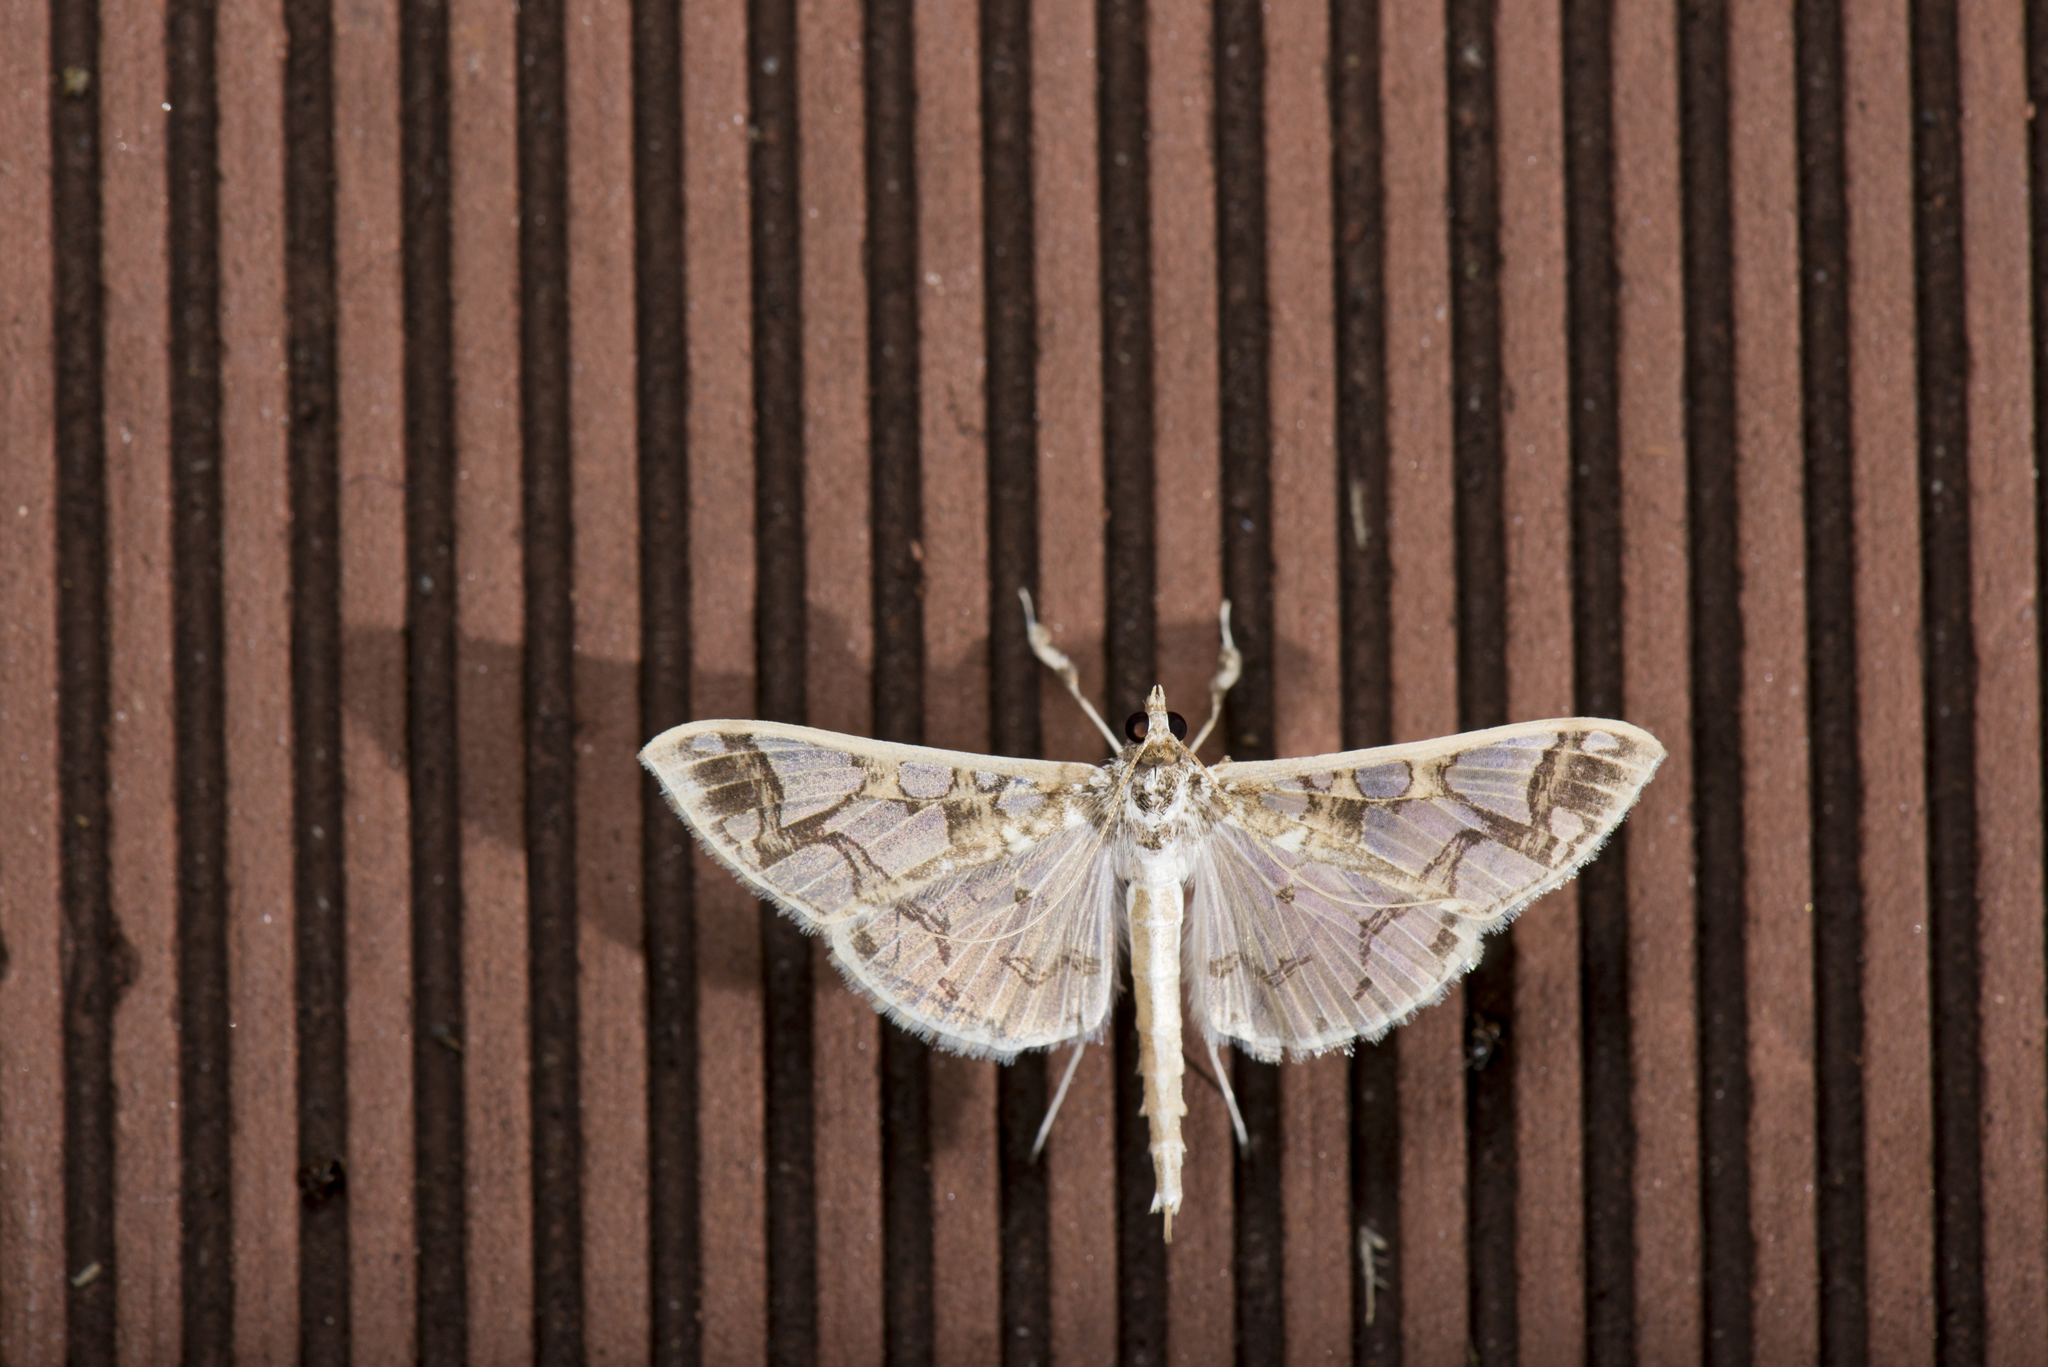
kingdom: Animalia
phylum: Arthropoda
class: Insecta
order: Lepidoptera
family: Crambidae
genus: Polythlipta
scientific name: Polythlipta divaricata
